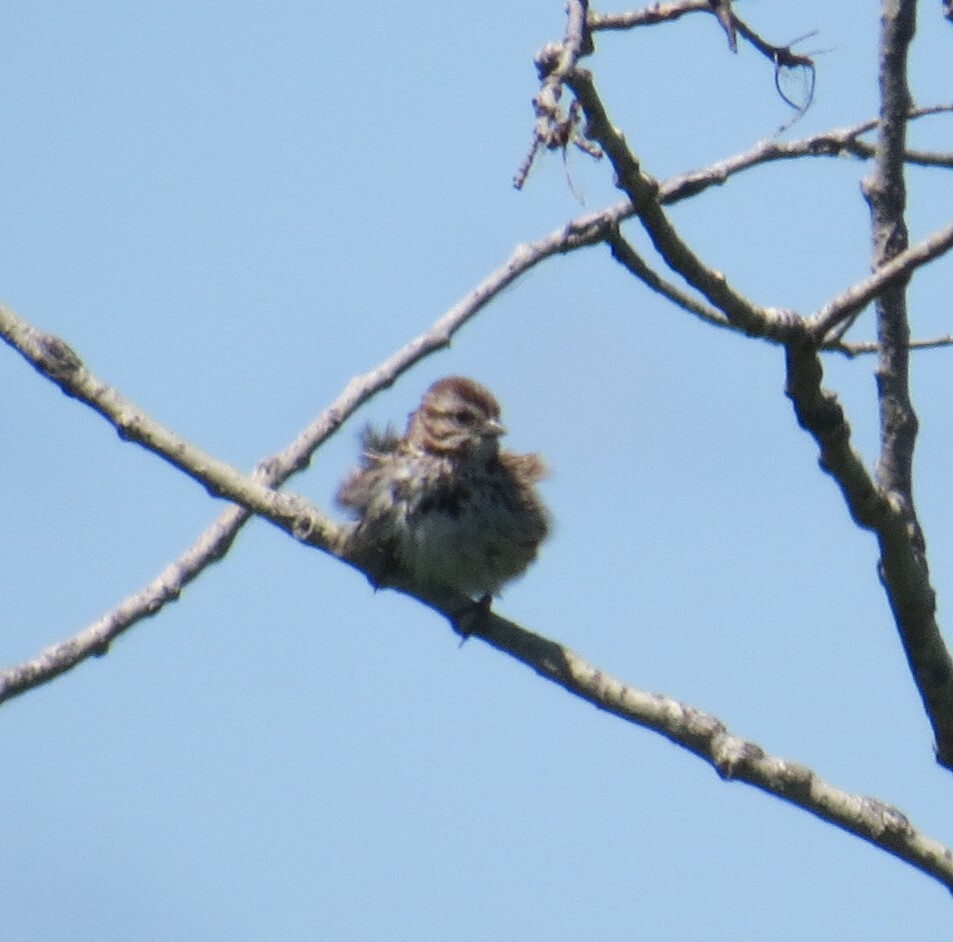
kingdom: Animalia
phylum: Chordata
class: Aves
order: Passeriformes
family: Passerellidae
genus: Melospiza
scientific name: Melospiza melodia
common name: Song sparrow
